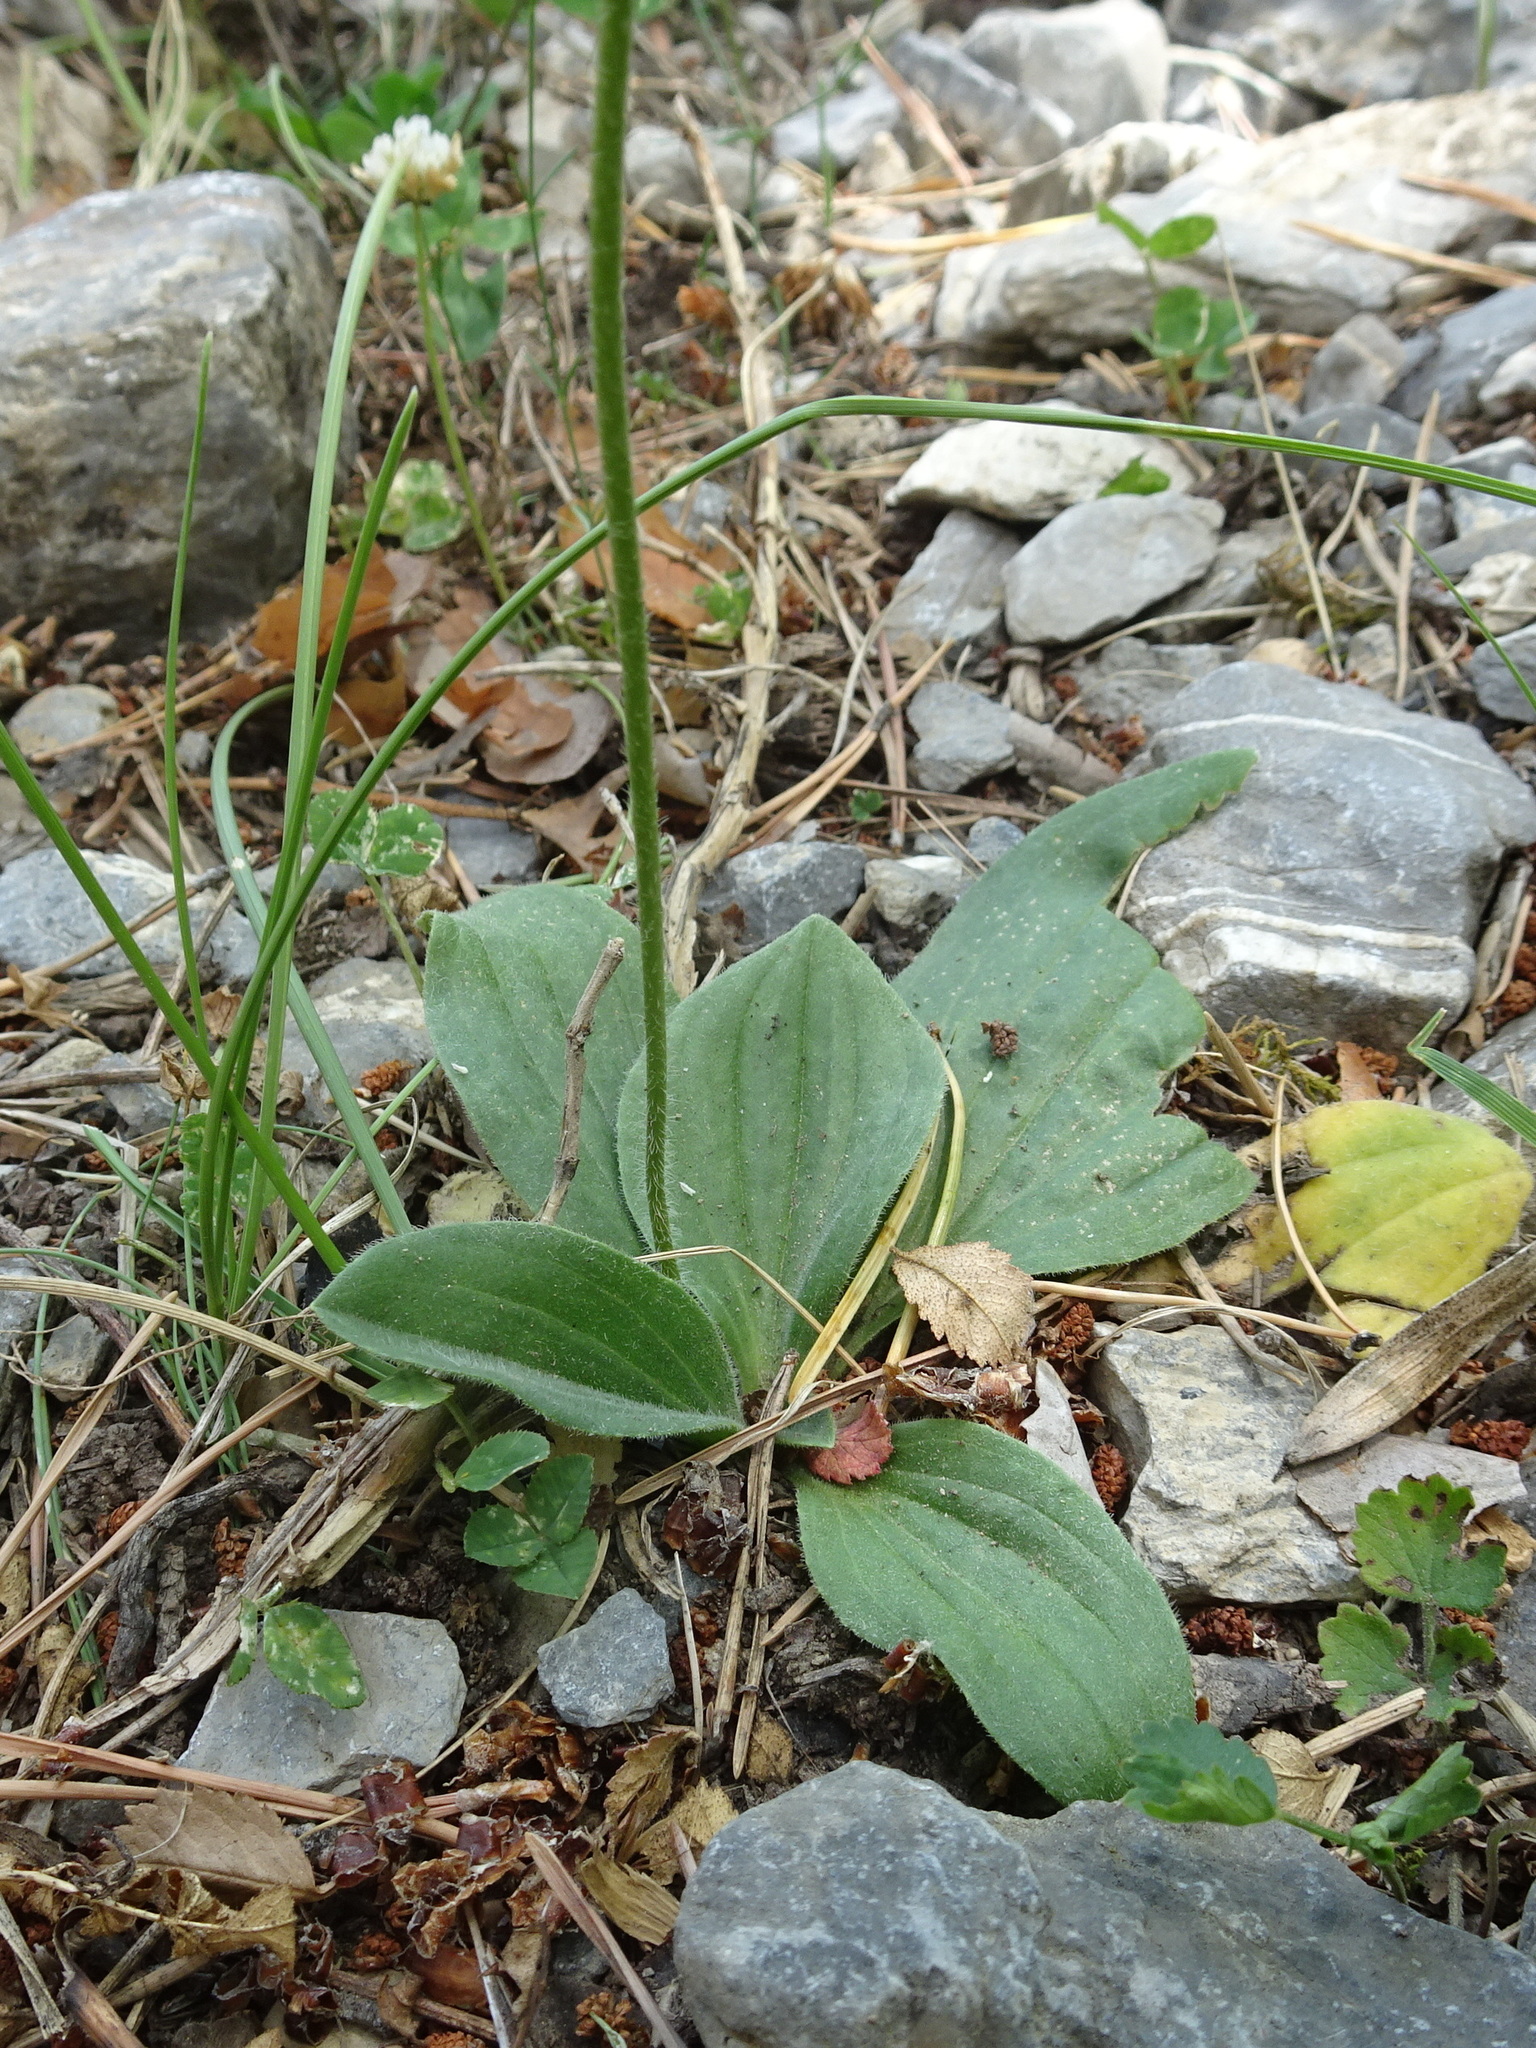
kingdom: Plantae
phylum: Tracheophyta
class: Magnoliopsida
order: Lamiales
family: Plantaginaceae
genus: Plantago
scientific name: Plantago media
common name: Hoary plantain
